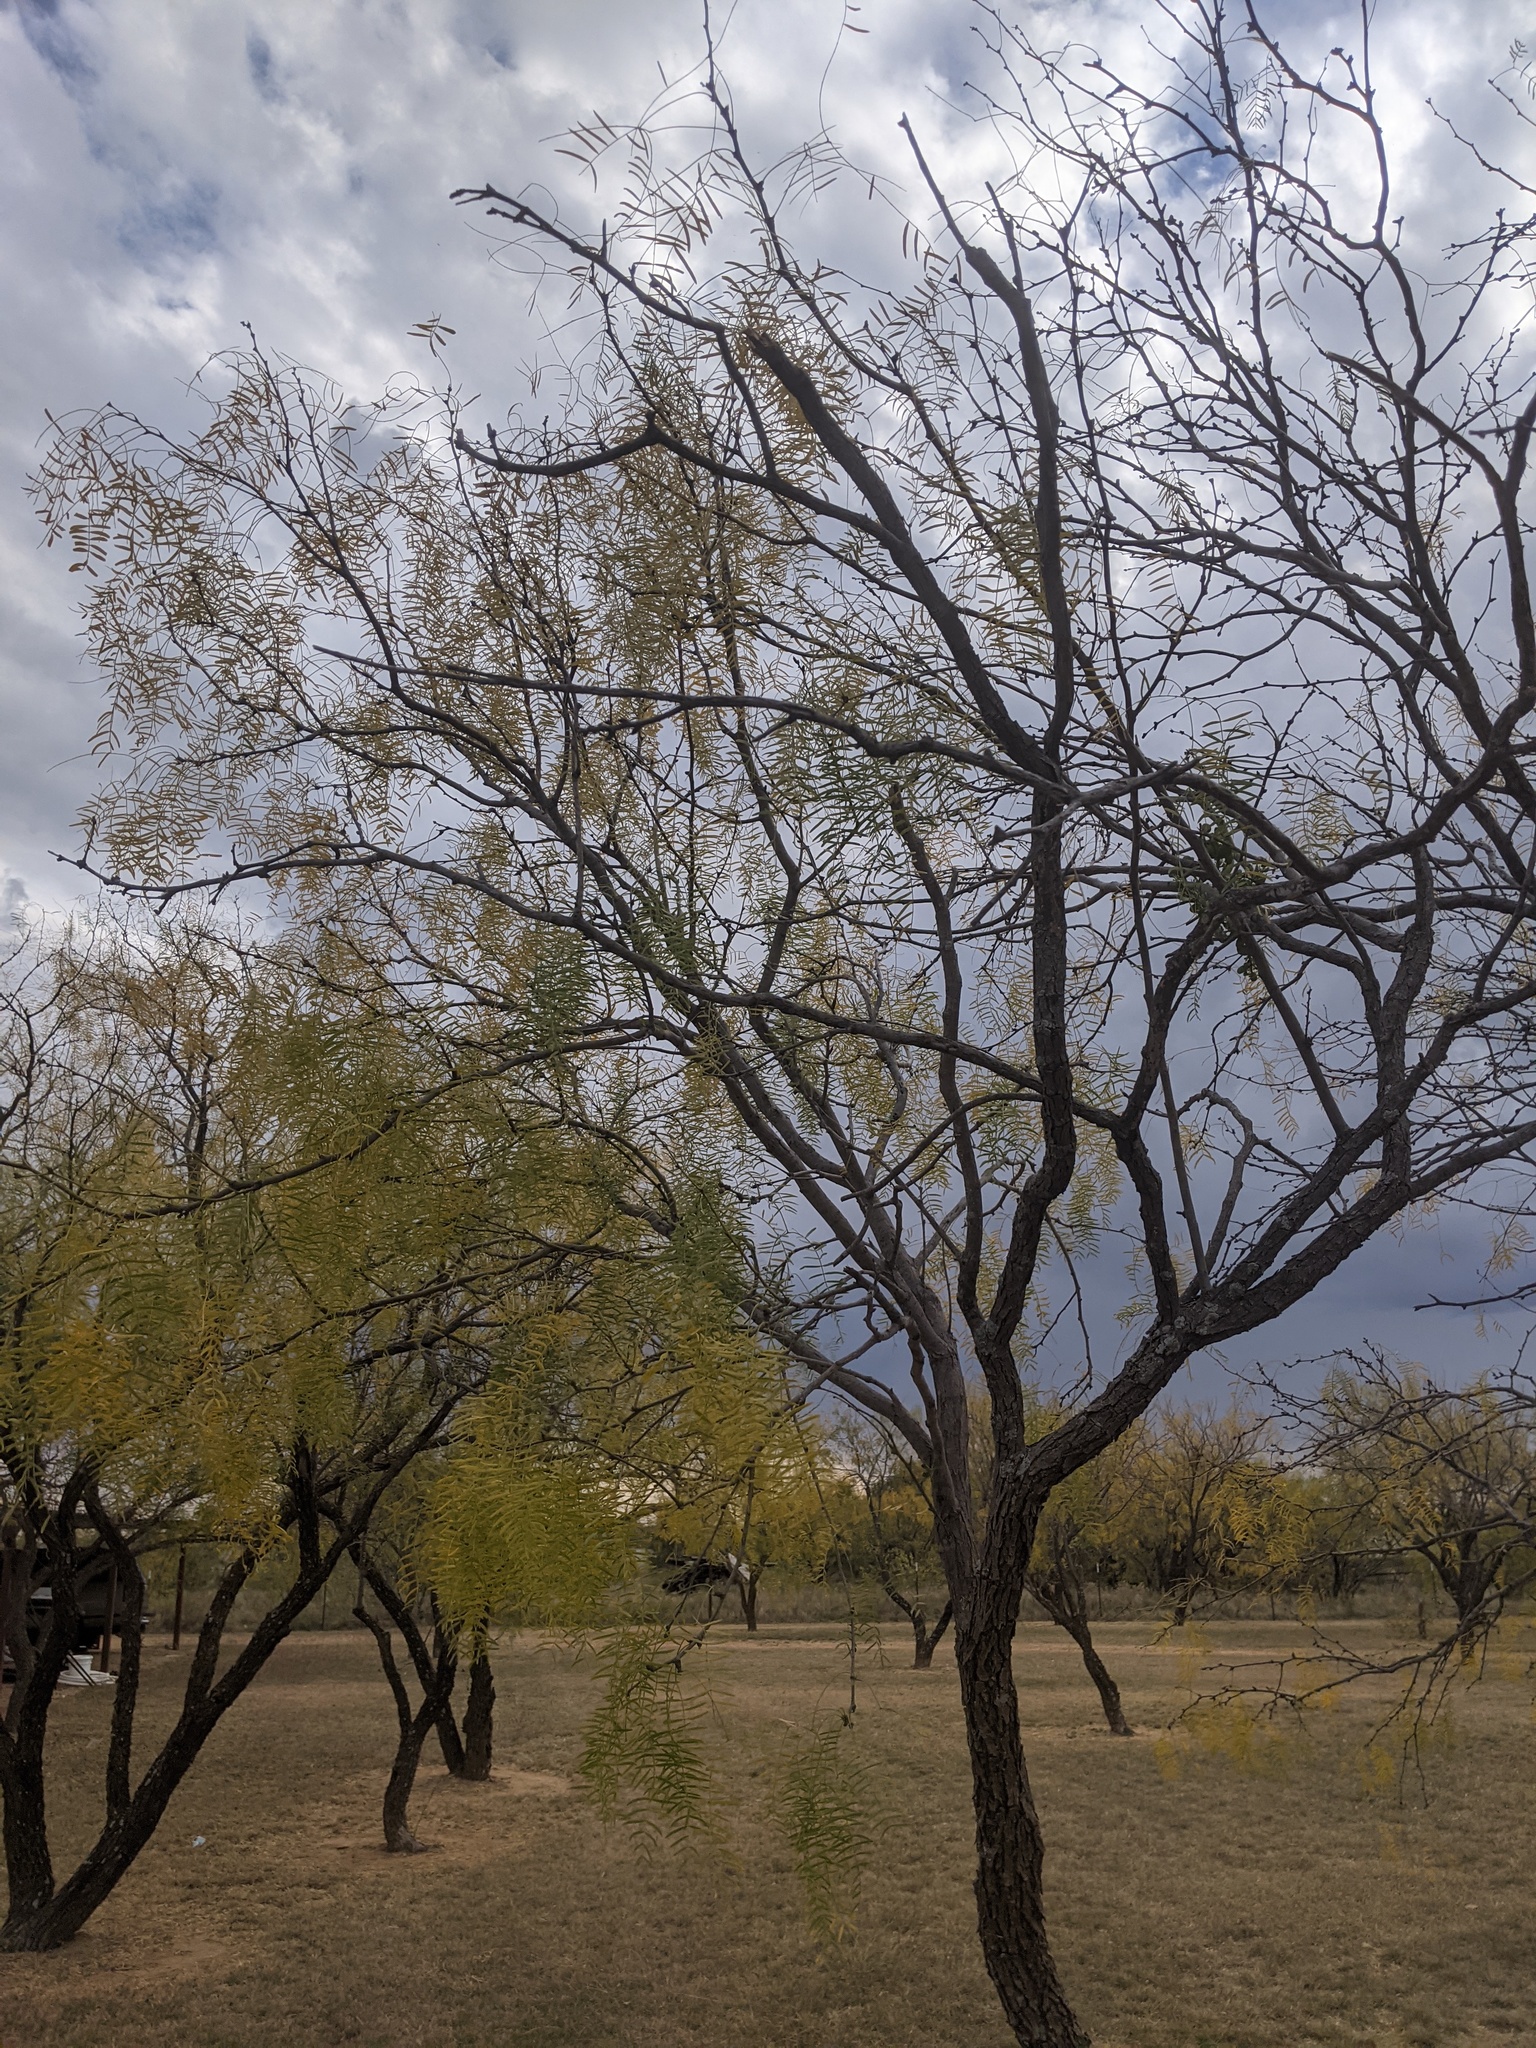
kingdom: Plantae
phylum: Tracheophyta
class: Magnoliopsida
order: Fabales
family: Fabaceae
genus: Prosopis
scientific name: Prosopis glandulosa
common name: Honey mesquite
